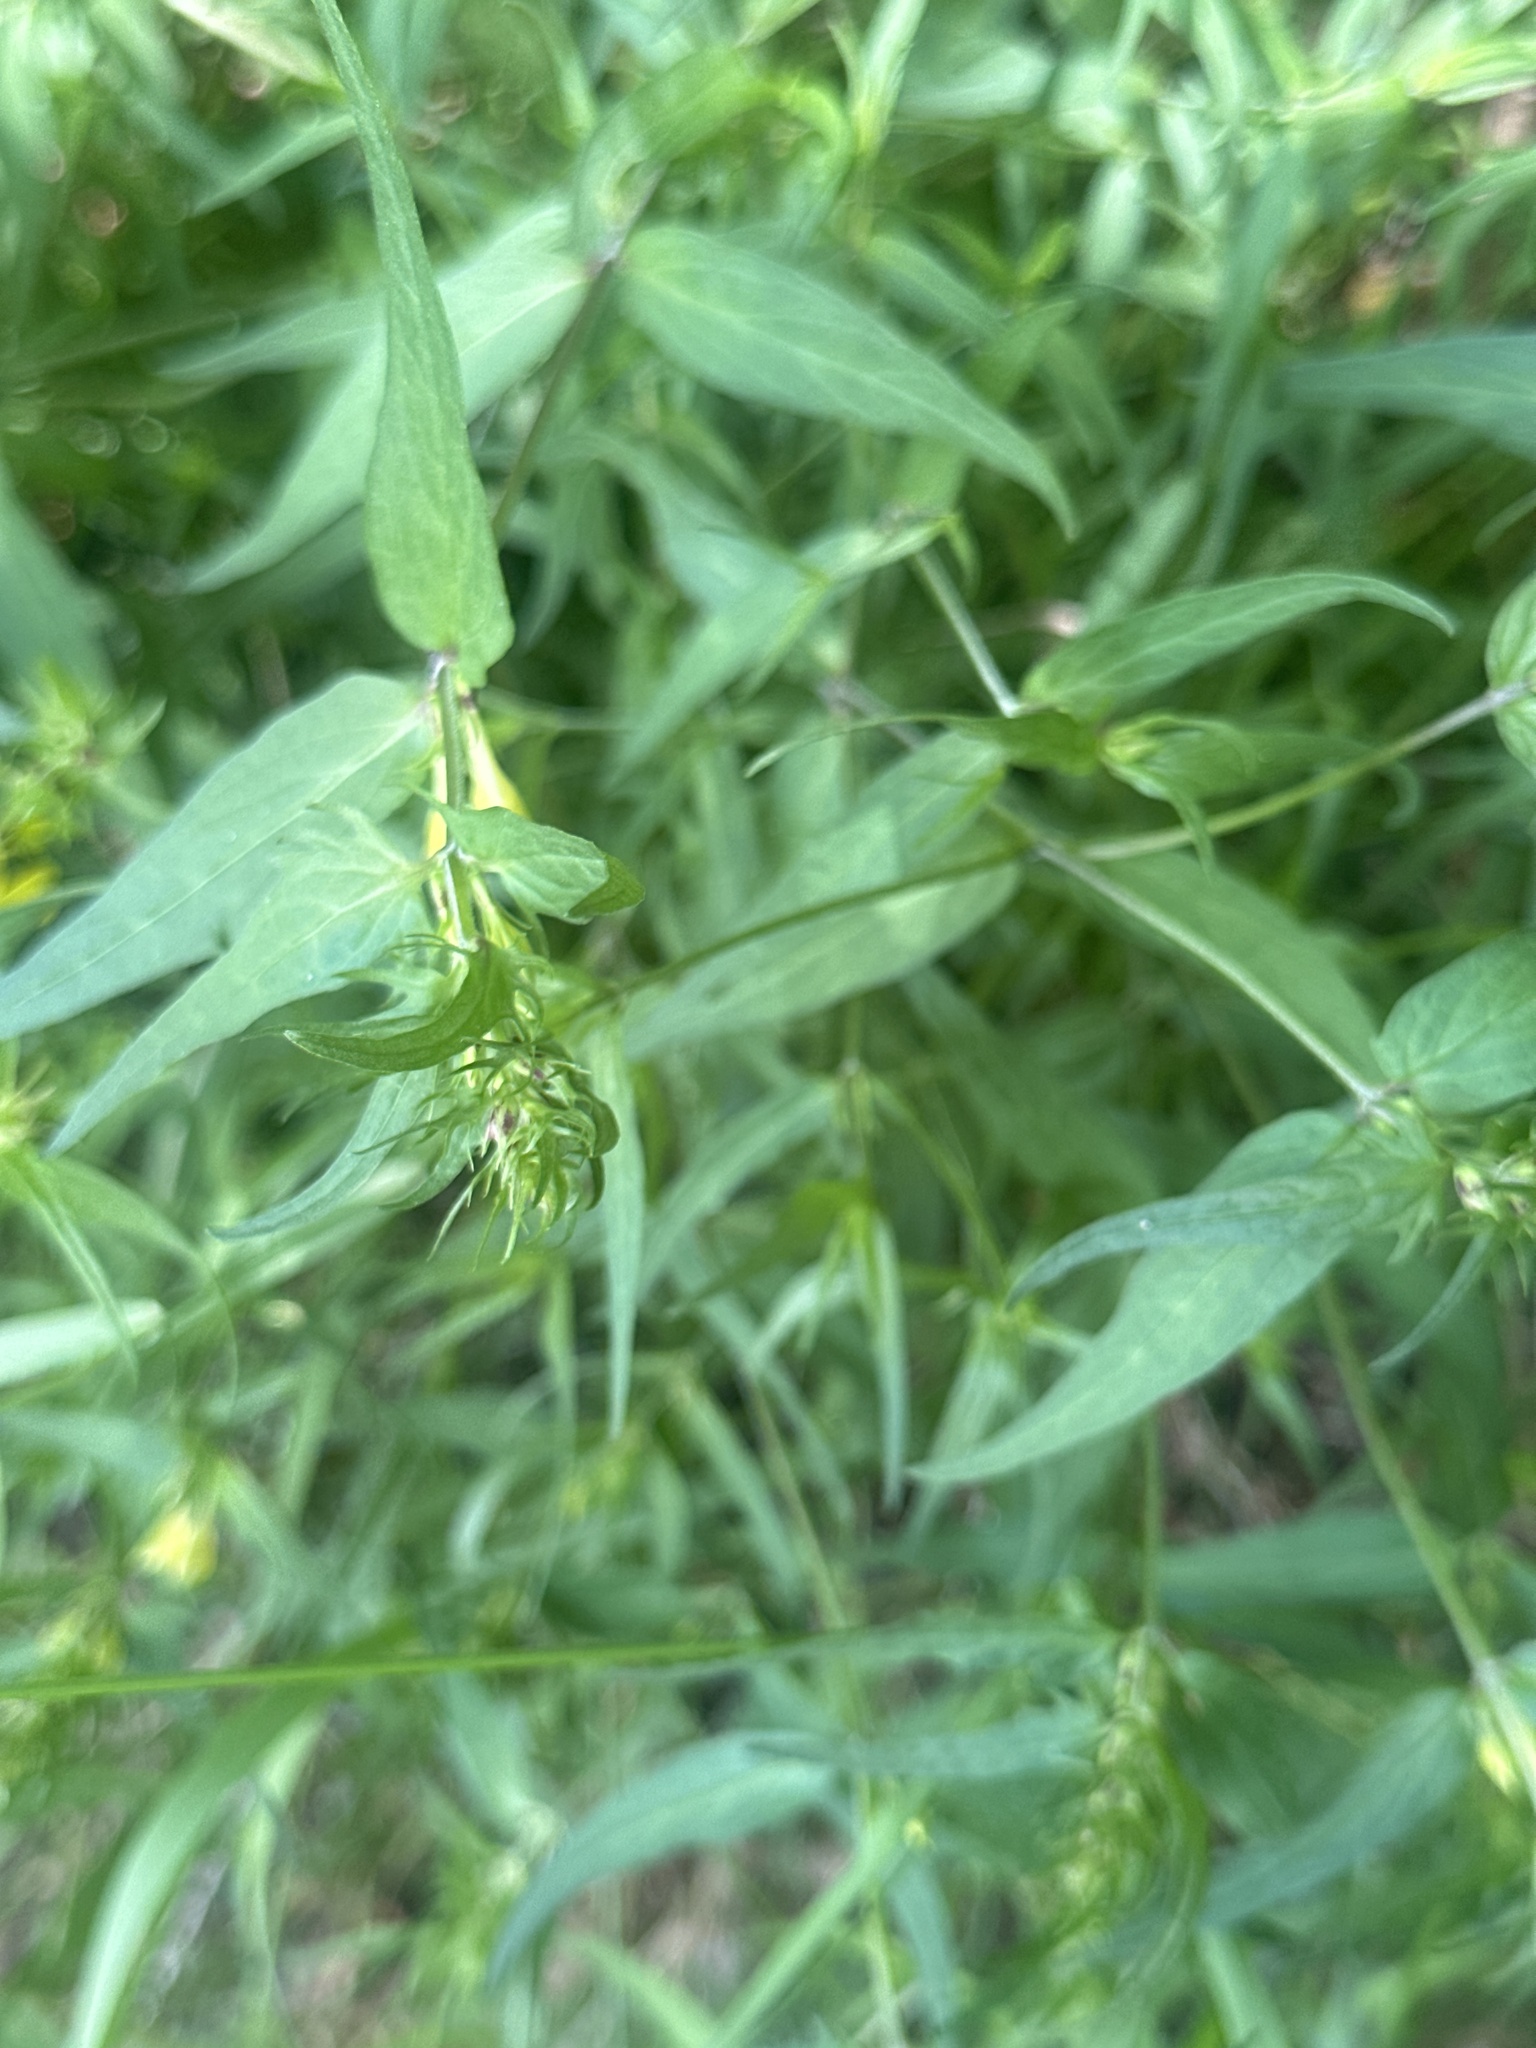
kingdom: Plantae
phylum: Tracheophyta
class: Magnoliopsida
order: Lamiales
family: Orobanchaceae
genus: Melampyrum
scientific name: Melampyrum pratense
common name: Common cow-wheat
